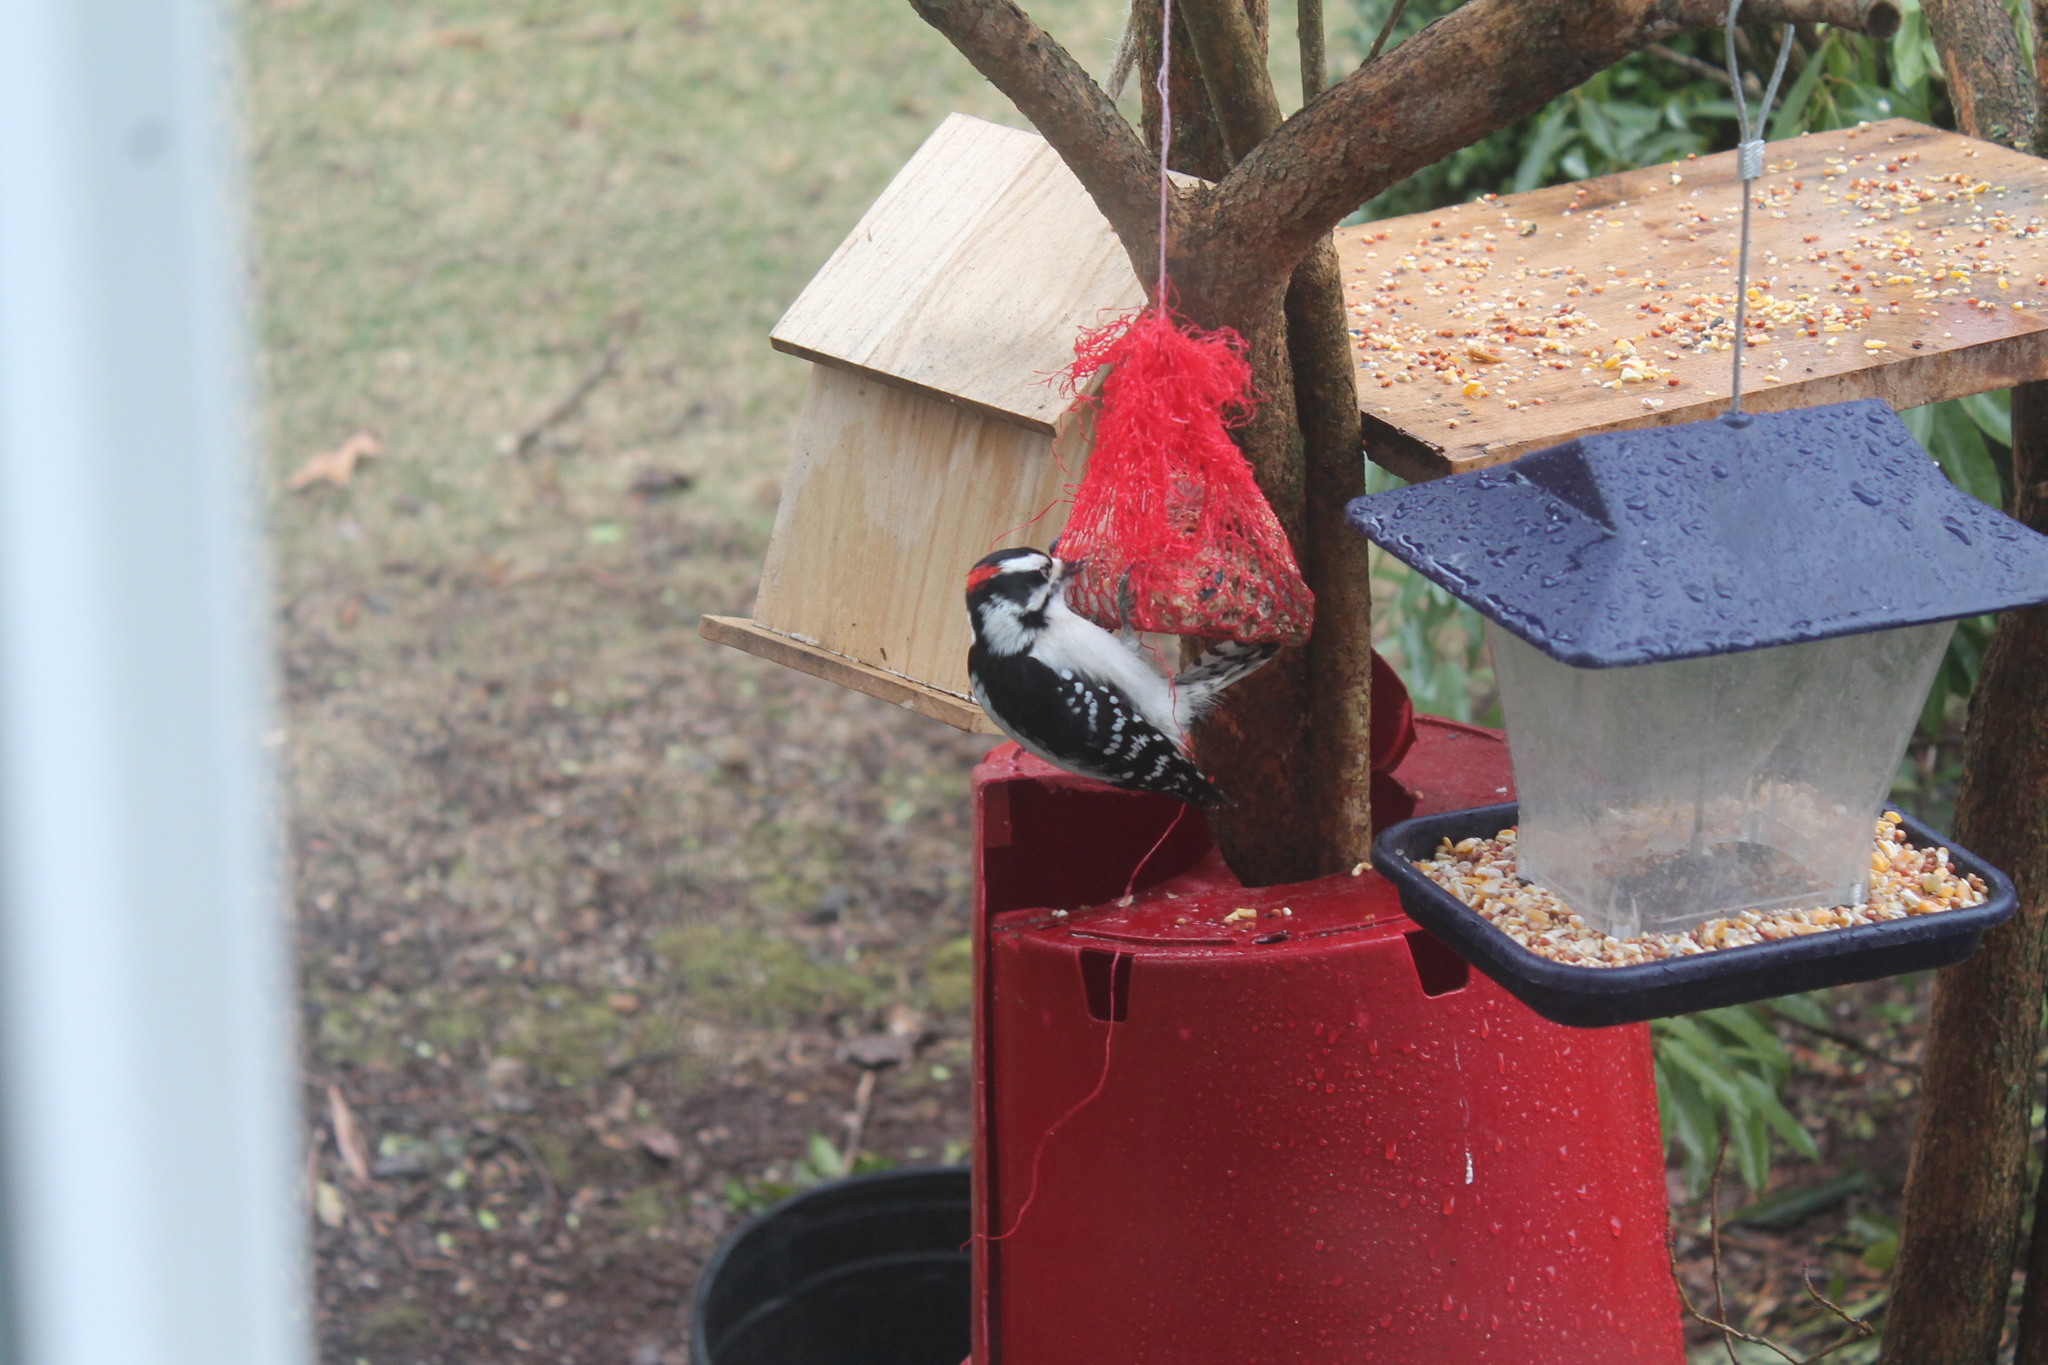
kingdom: Animalia
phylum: Chordata
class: Aves
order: Piciformes
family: Picidae
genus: Dryobates
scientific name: Dryobates pubescens
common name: Downy woodpecker
